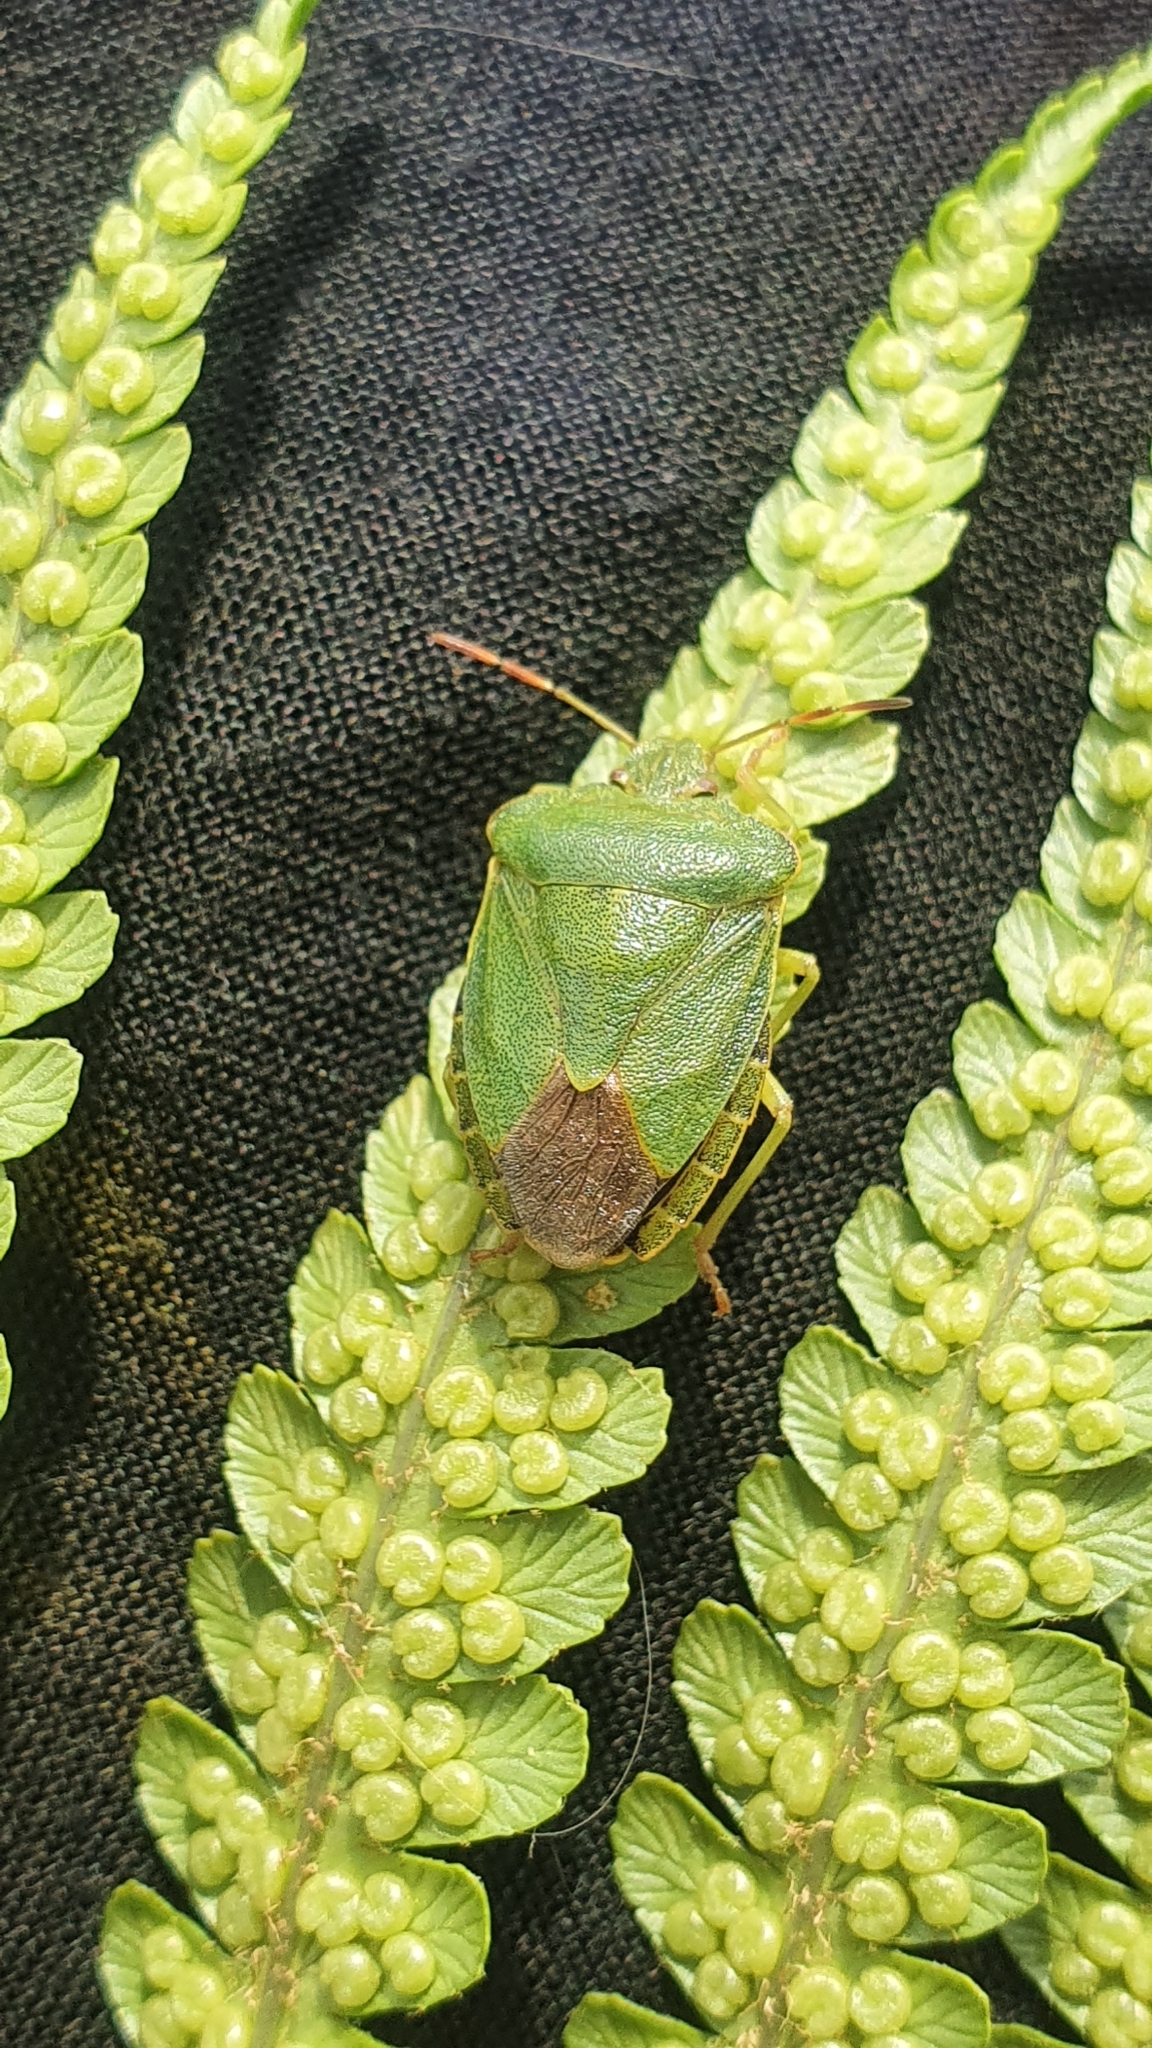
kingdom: Animalia
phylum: Arthropoda
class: Insecta
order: Hemiptera
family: Pentatomidae
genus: Palomena
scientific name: Palomena prasina
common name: Green shieldbug
